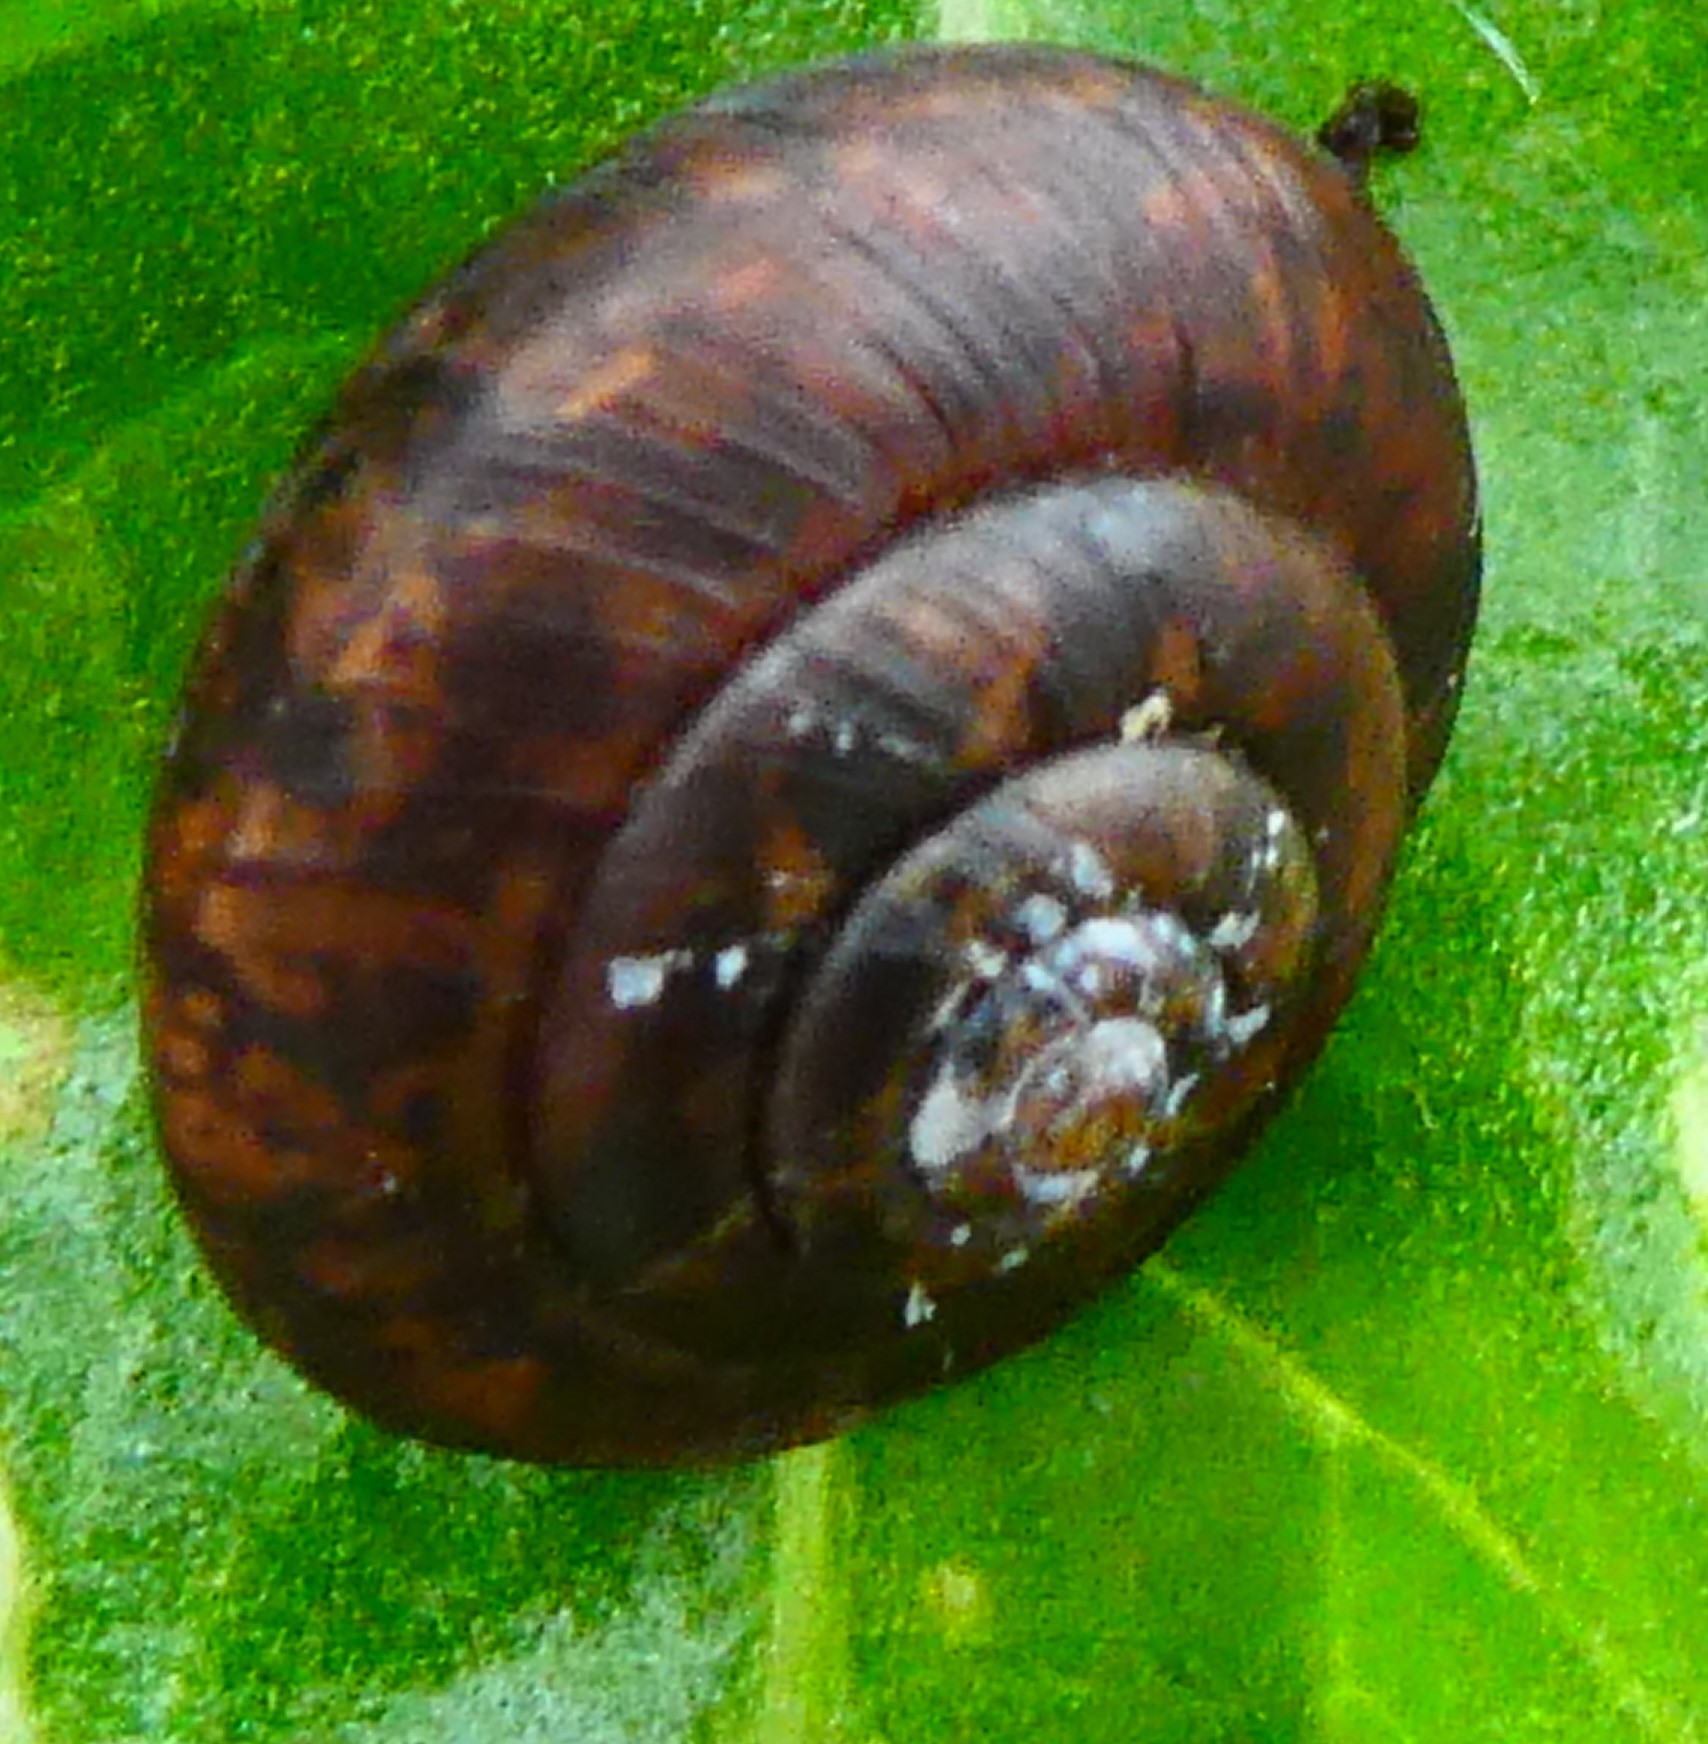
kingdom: Animalia
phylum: Mollusca
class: Gastropoda
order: Stylommatophora
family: Hygromiidae
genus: Trochulus
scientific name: Trochulus striolatus
